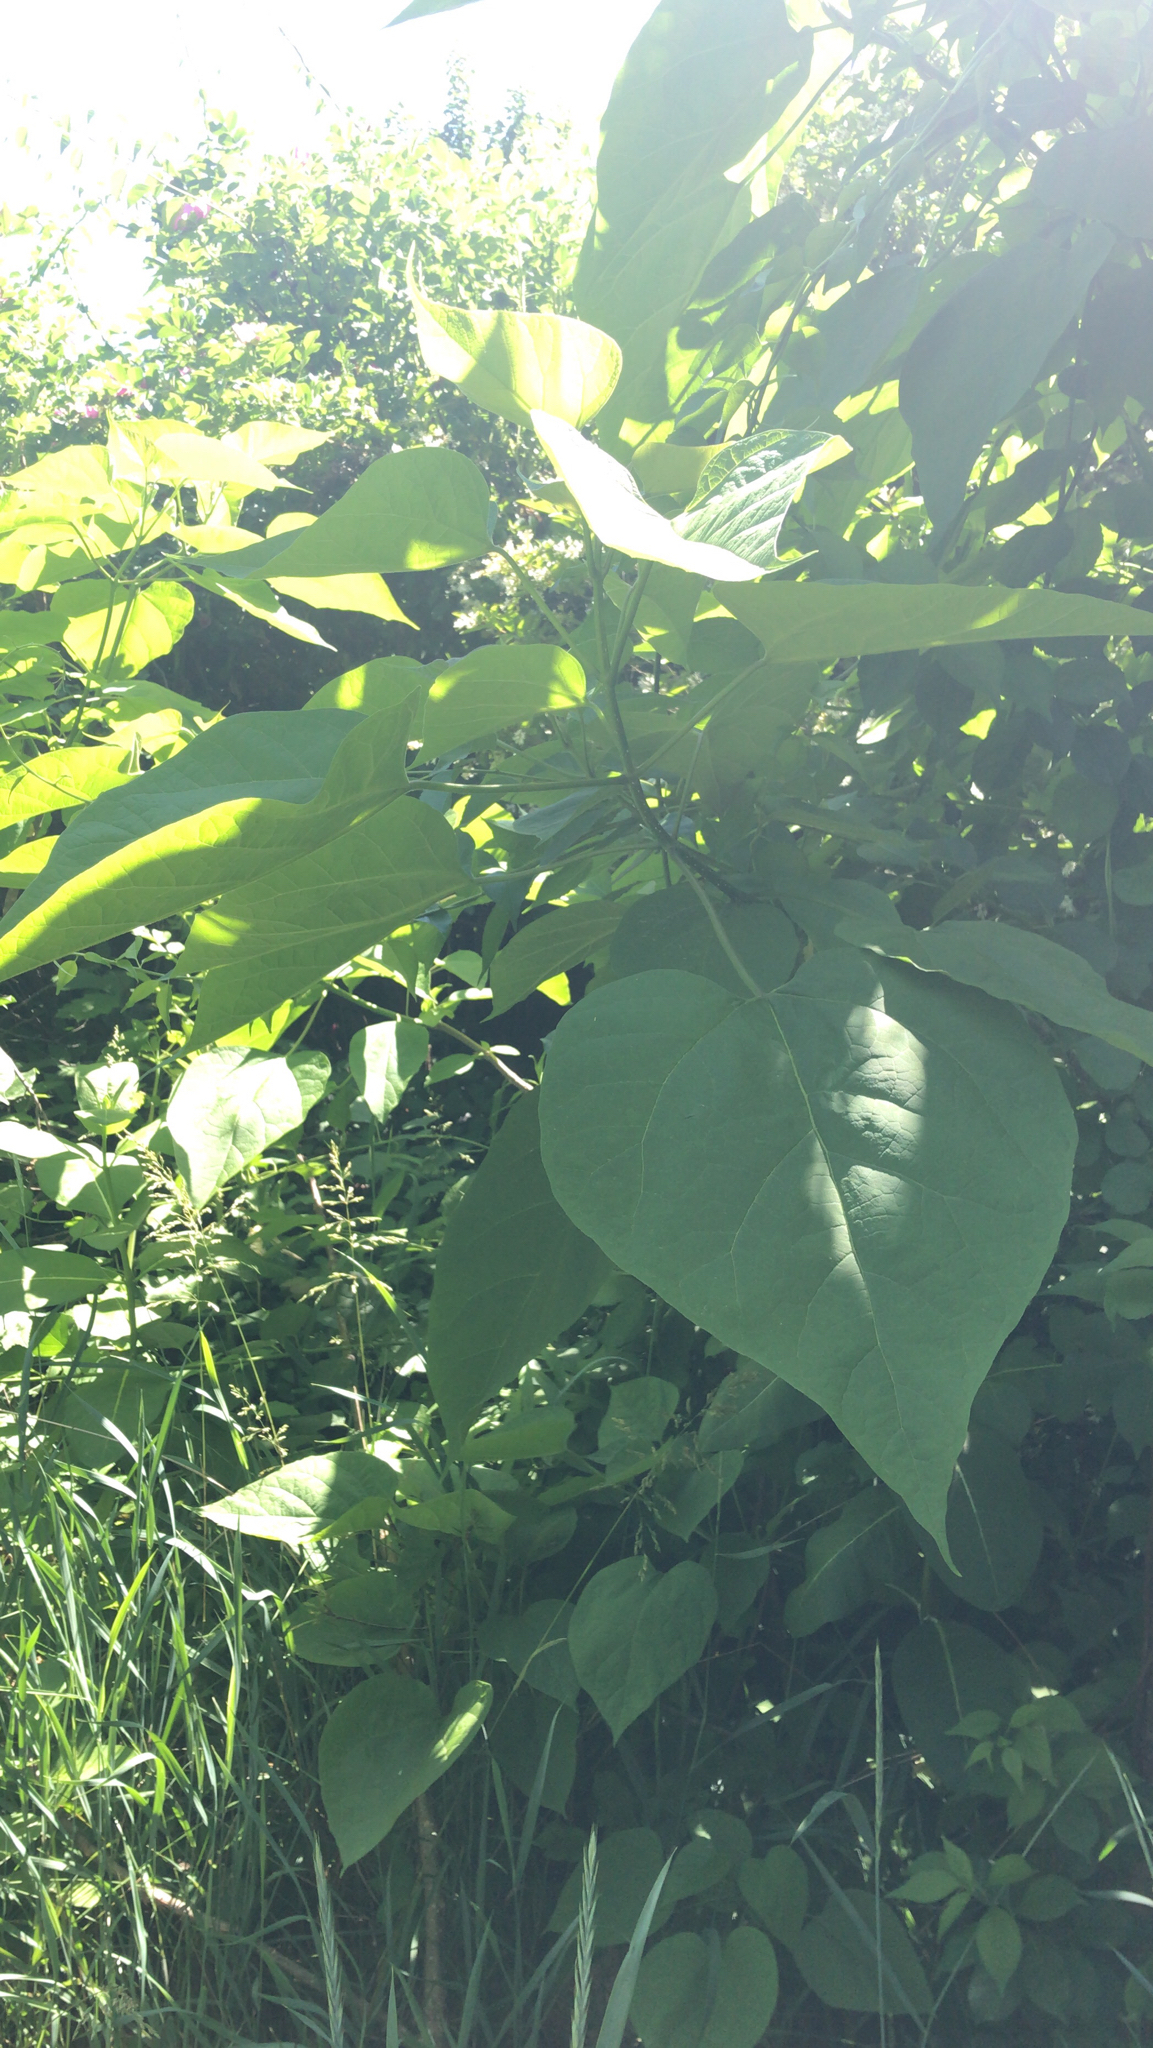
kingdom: Plantae
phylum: Tracheophyta
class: Magnoliopsida
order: Lamiales
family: Bignoniaceae
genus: Catalpa
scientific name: Catalpa speciosa
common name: Northern catalpa
